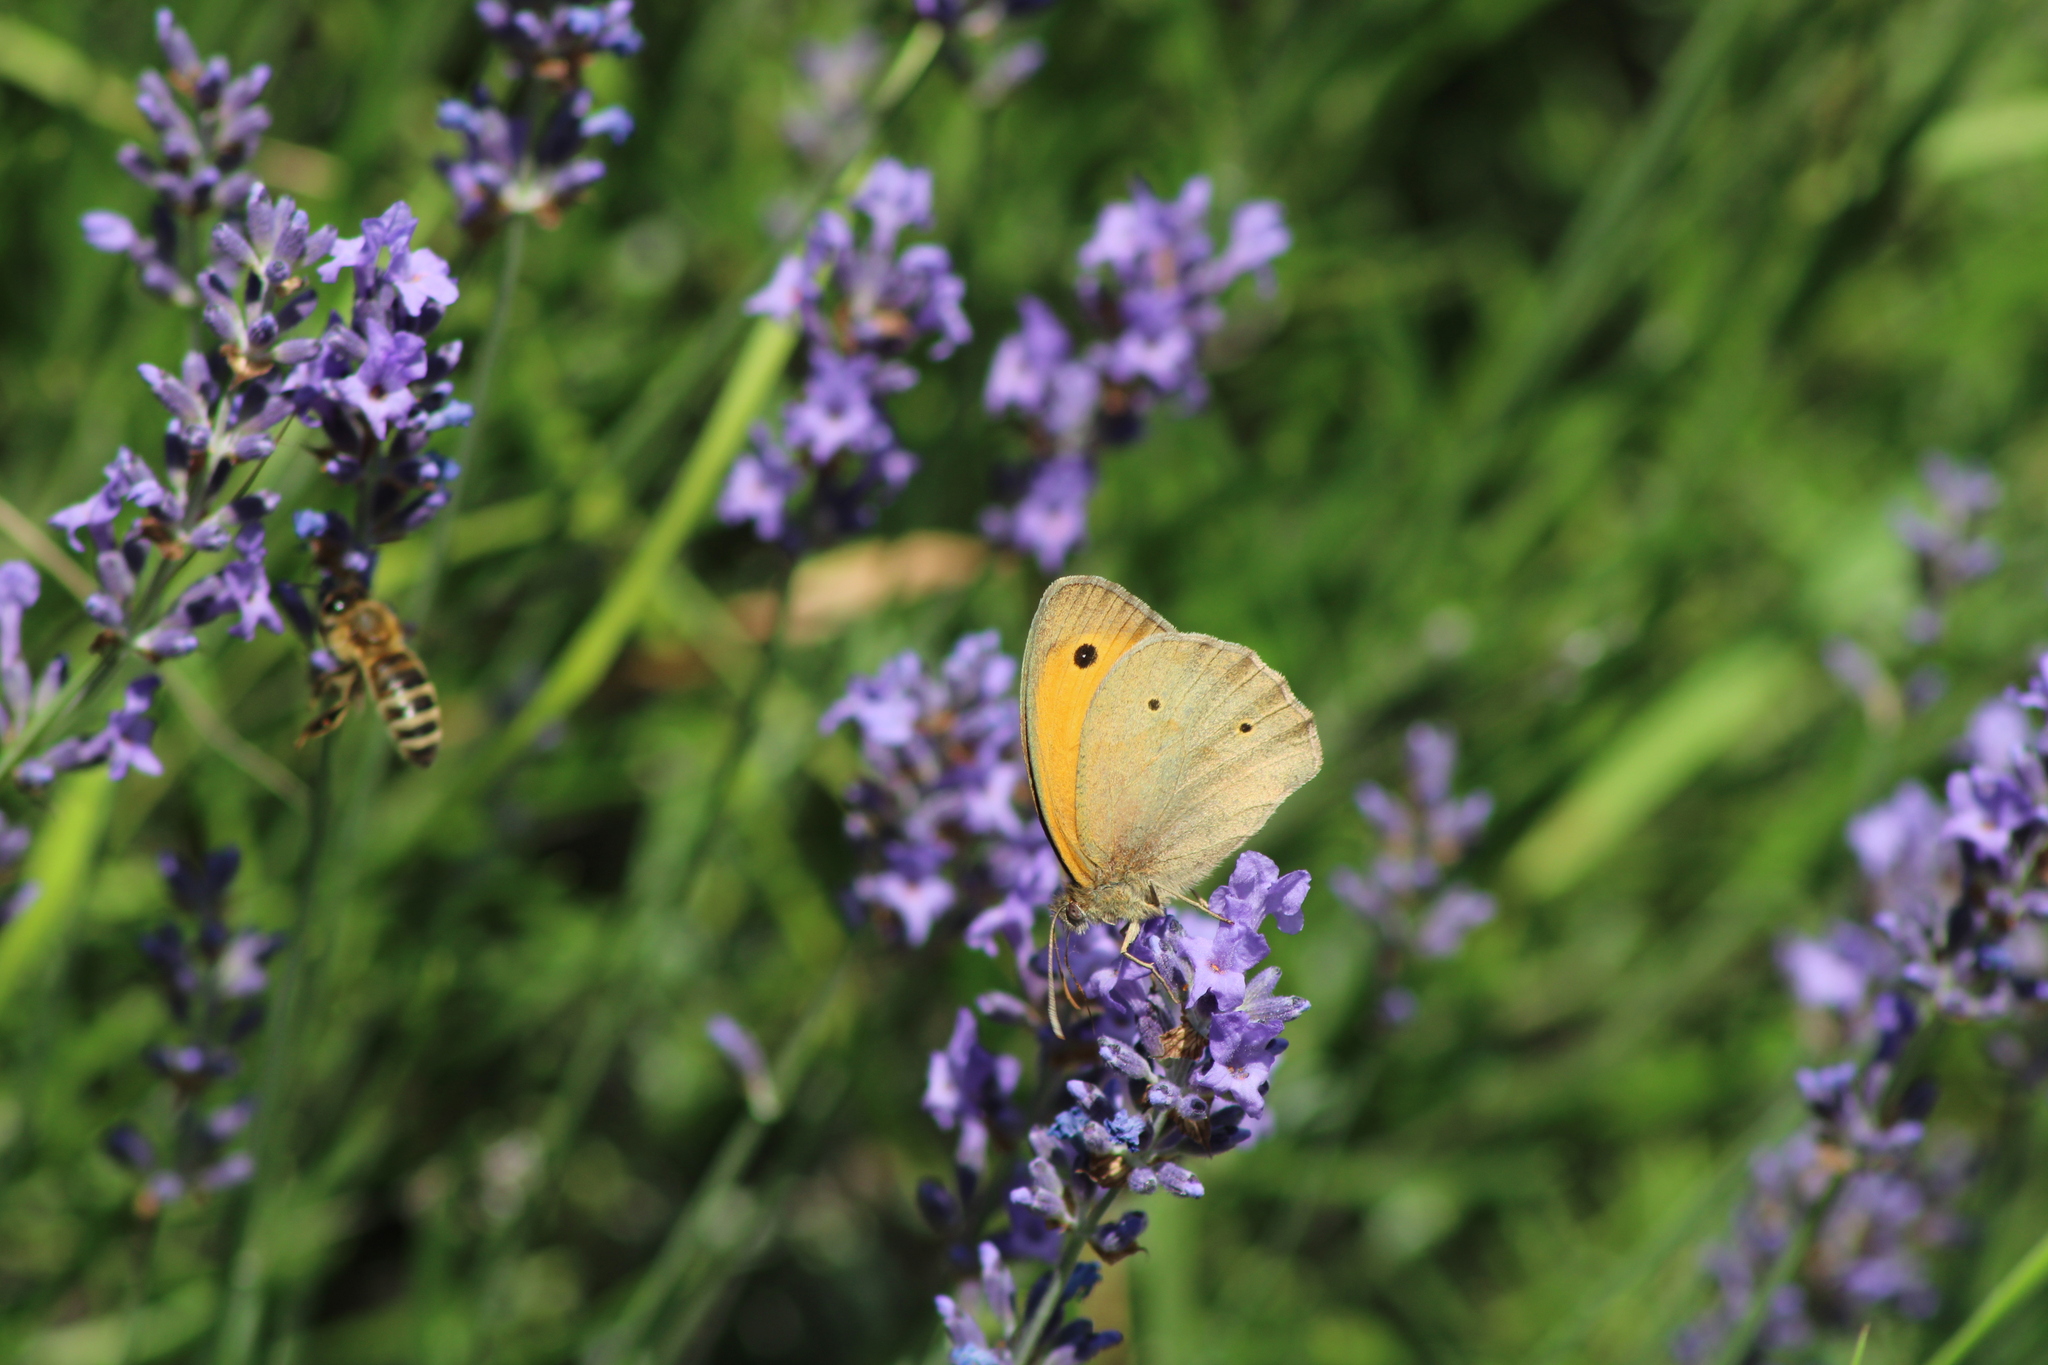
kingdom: Animalia
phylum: Arthropoda
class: Insecta
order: Lepidoptera
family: Nymphalidae
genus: Maniola
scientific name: Maniola jurtina
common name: Meadow brown
